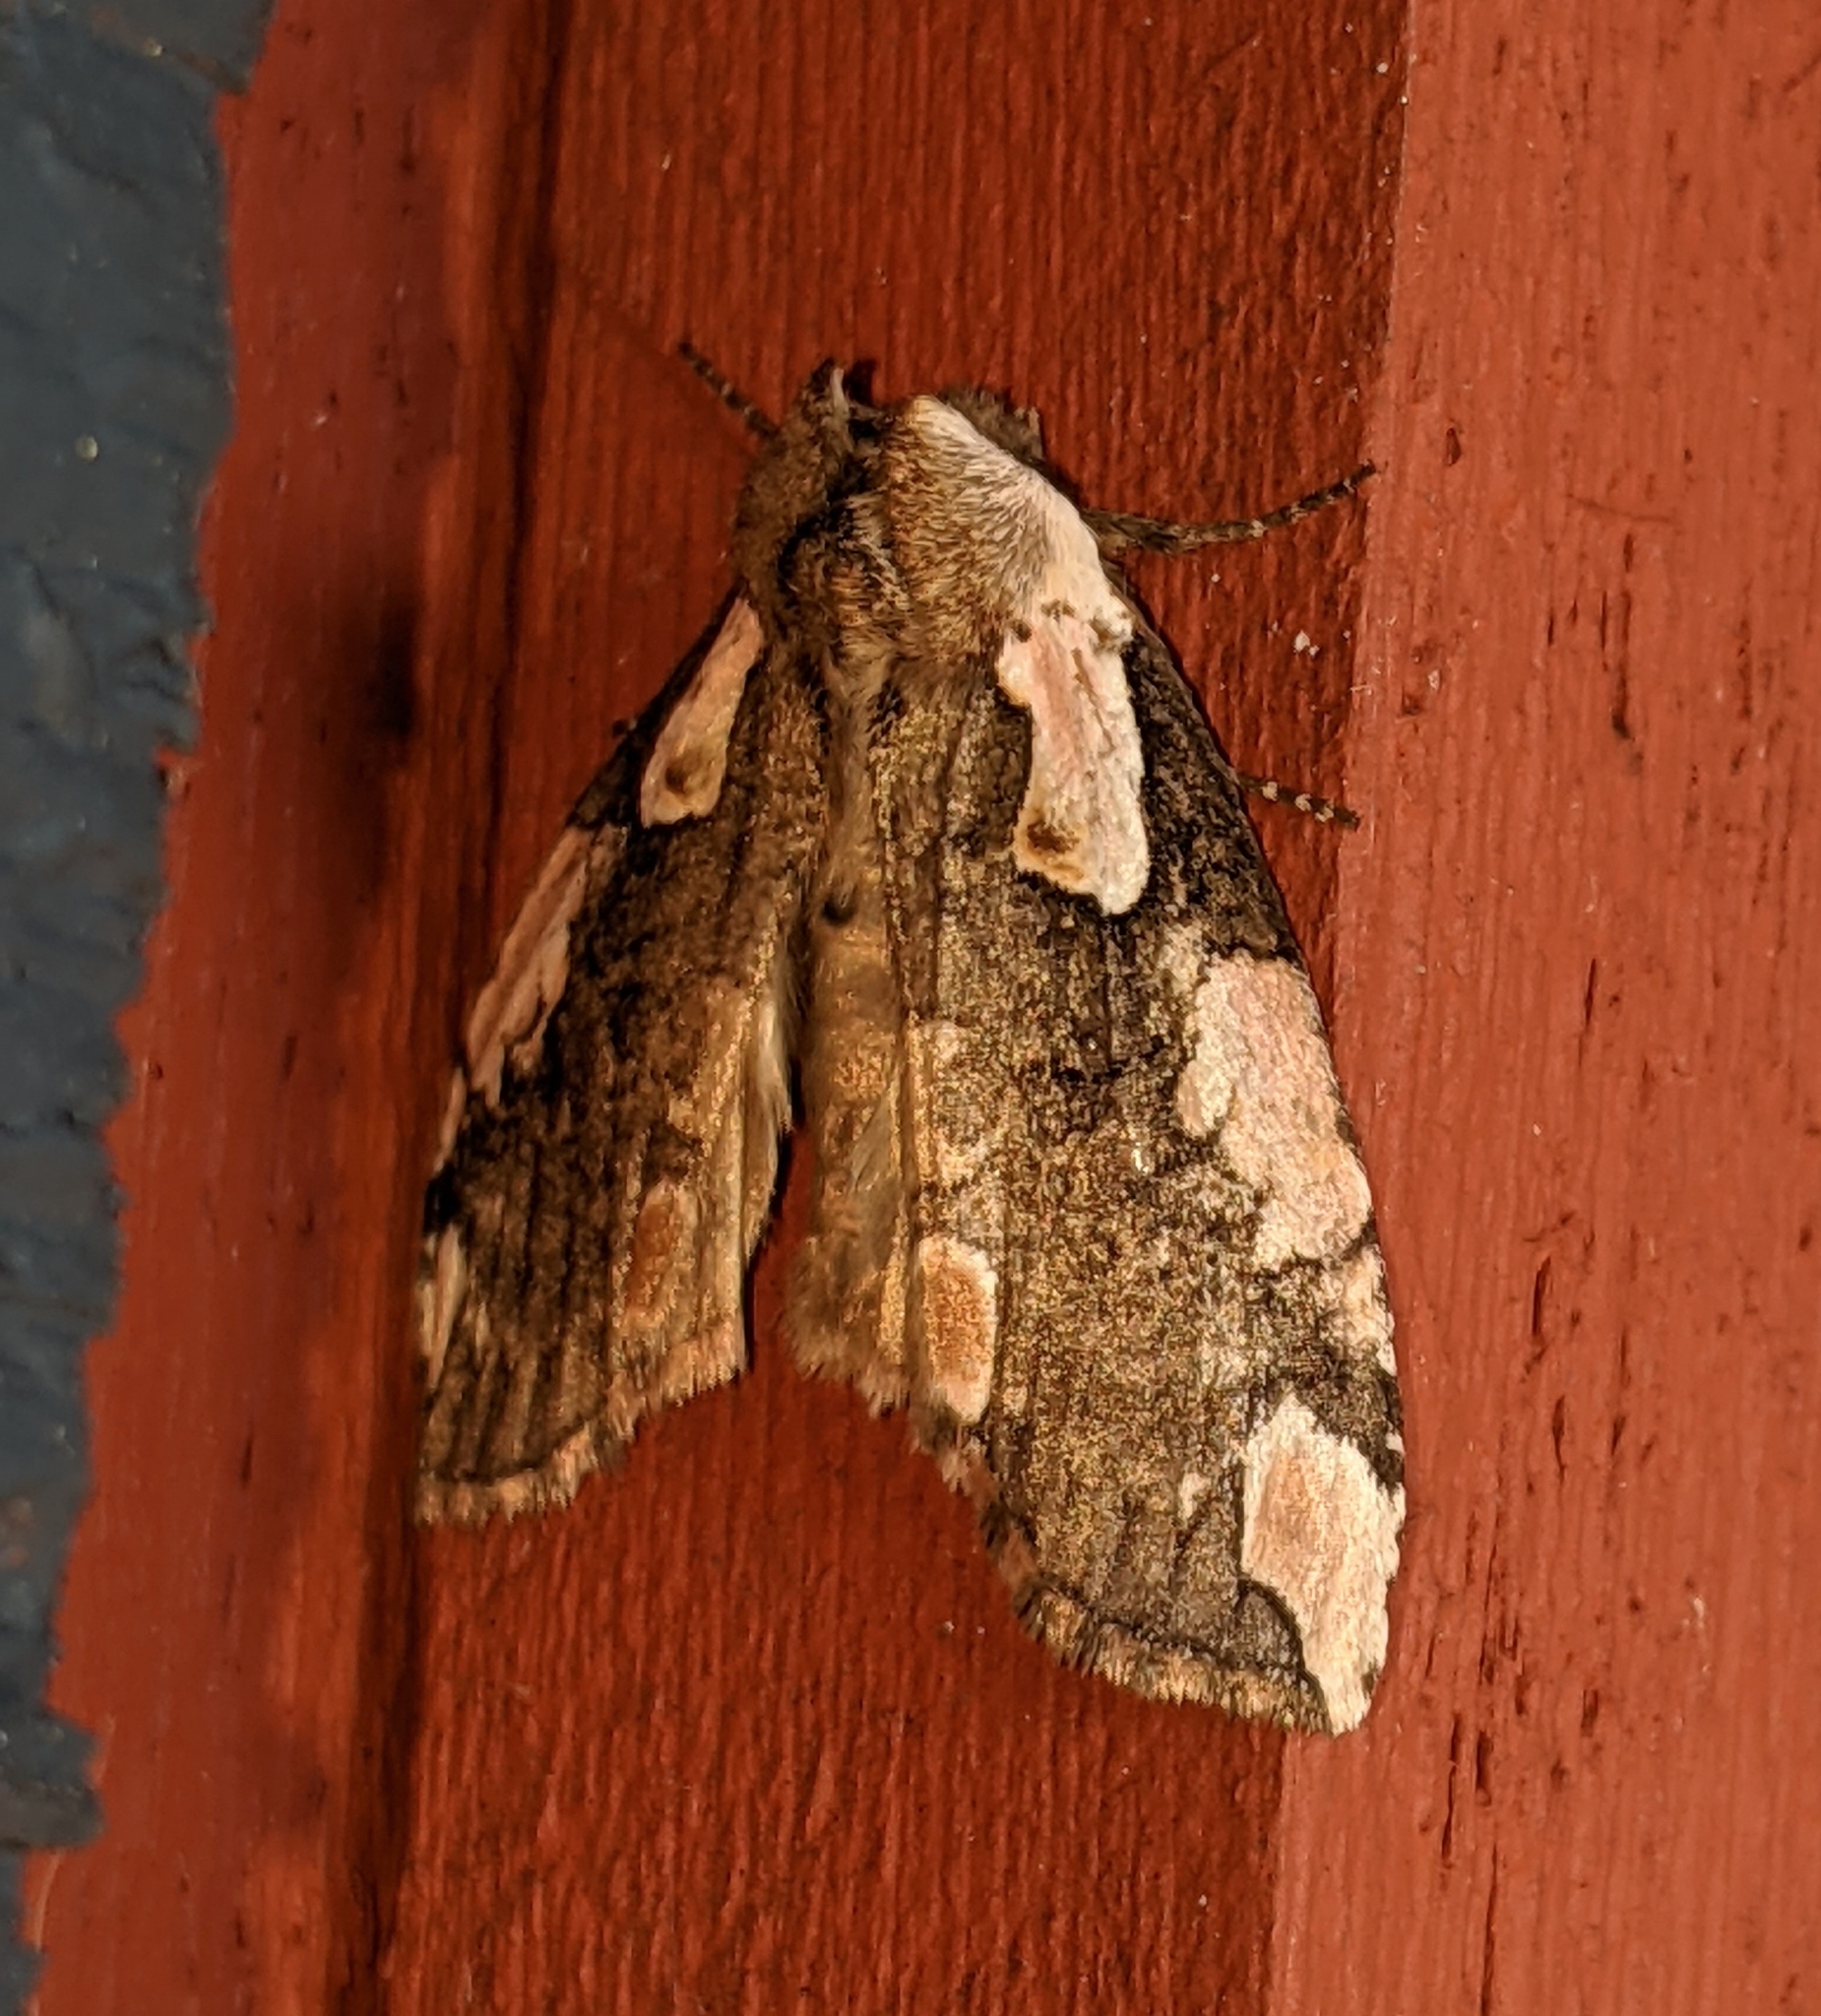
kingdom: Animalia
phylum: Arthropoda
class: Insecta
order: Lepidoptera
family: Drepanidae
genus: Euthyatira
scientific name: Euthyatira pudens
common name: Dogwood thyatirid moth
